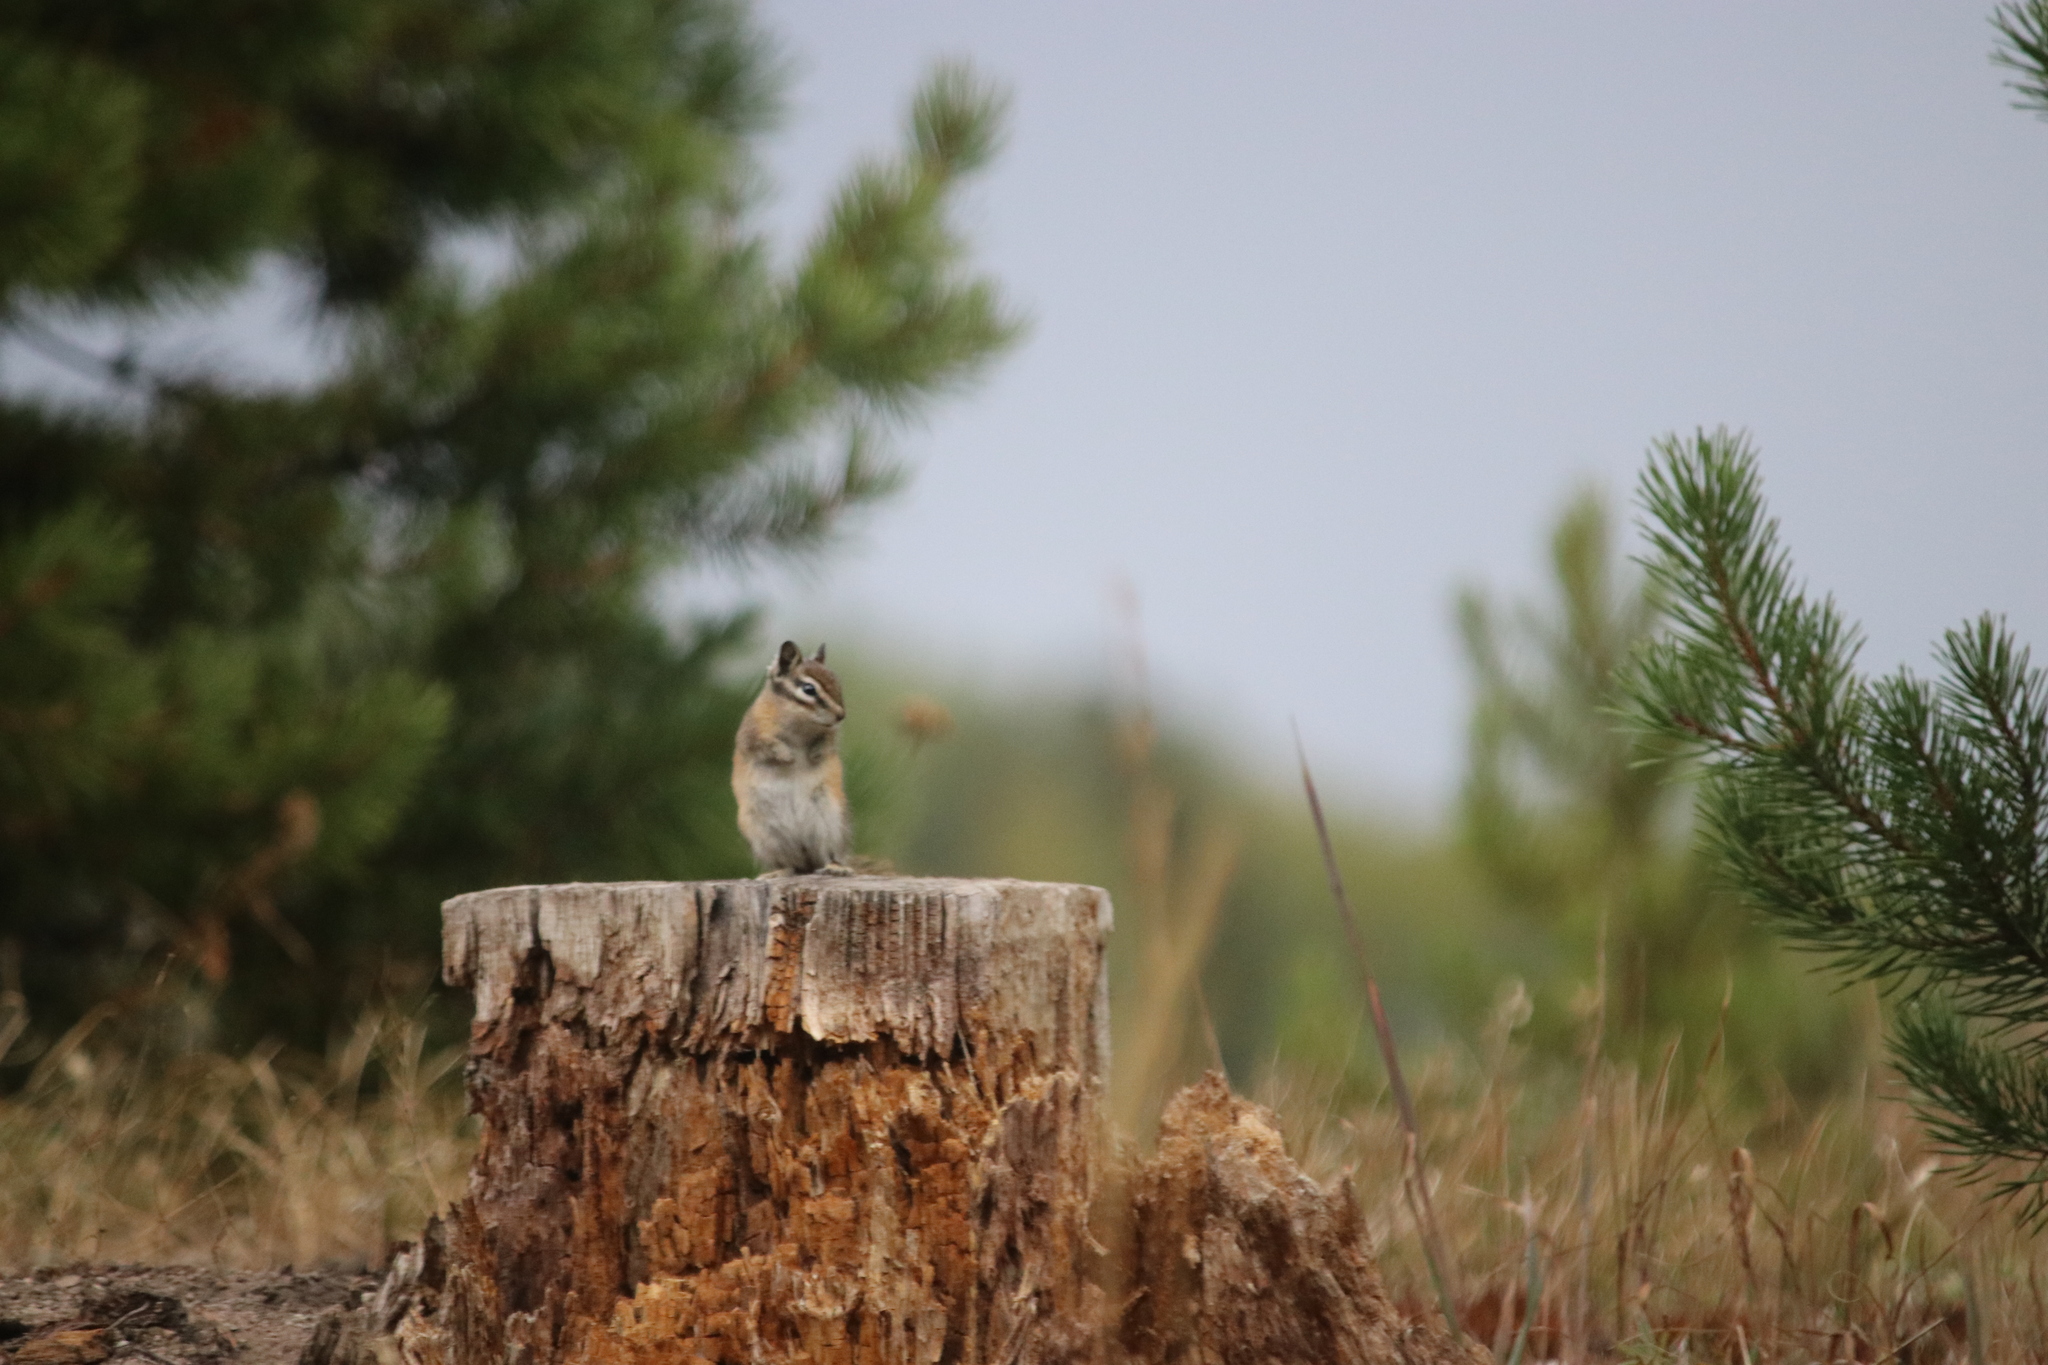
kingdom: Animalia
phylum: Chordata
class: Mammalia
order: Rodentia
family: Sciuridae
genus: Tamias
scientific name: Tamias minimus
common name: Least chipmunk
